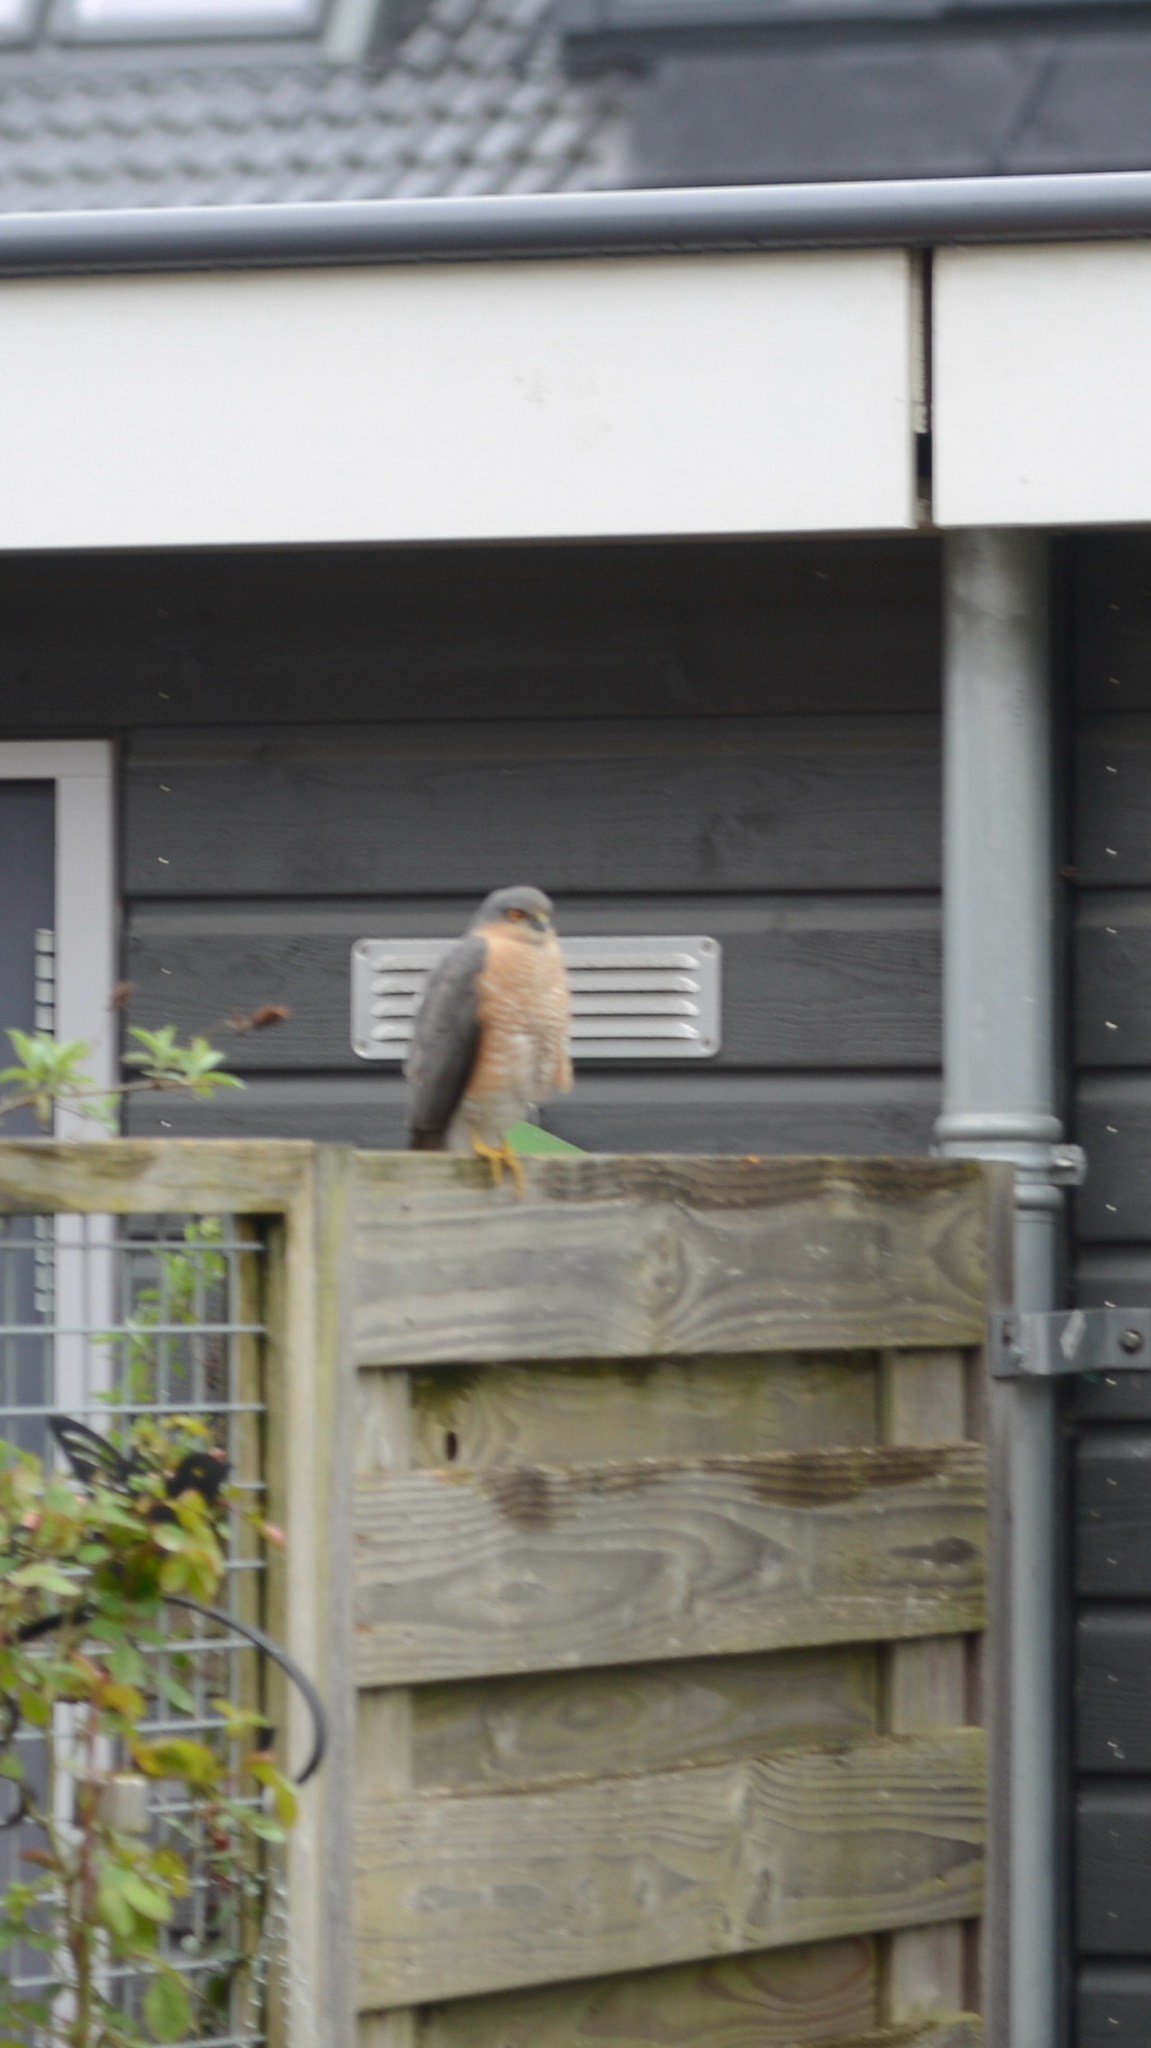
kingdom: Animalia
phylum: Chordata
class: Aves
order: Accipitriformes
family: Accipitridae
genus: Accipiter
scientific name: Accipiter nisus
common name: Eurasian sparrowhawk
